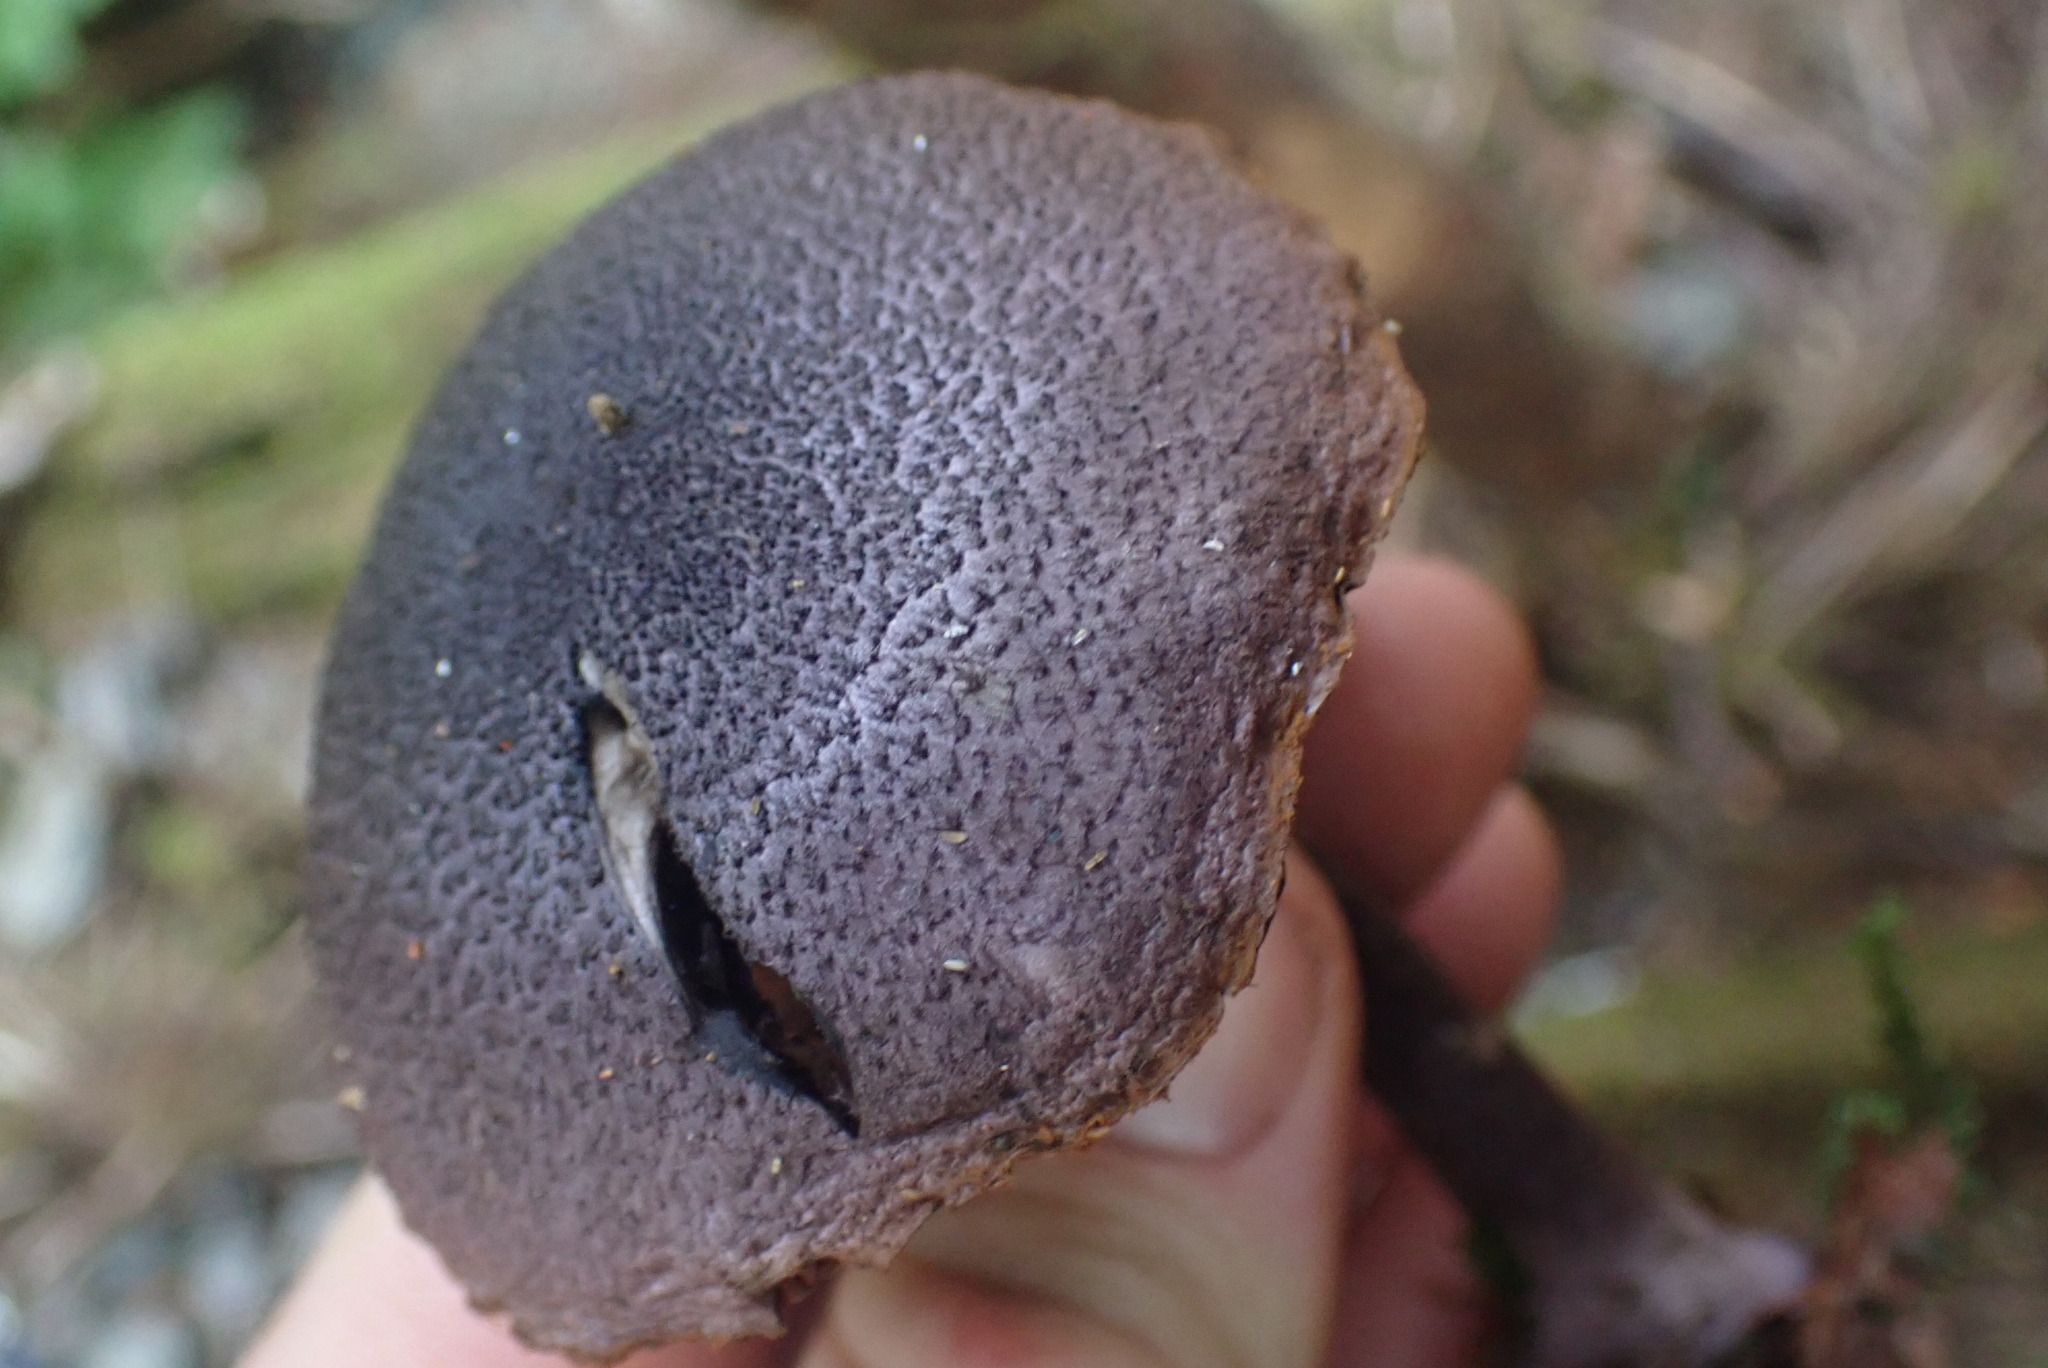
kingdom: Fungi
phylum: Basidiomycota
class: Agaricomycetes
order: Agaricales
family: Cortinariaceae
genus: Cortinarius
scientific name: Cortinarius violaceus
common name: Violet webcap
